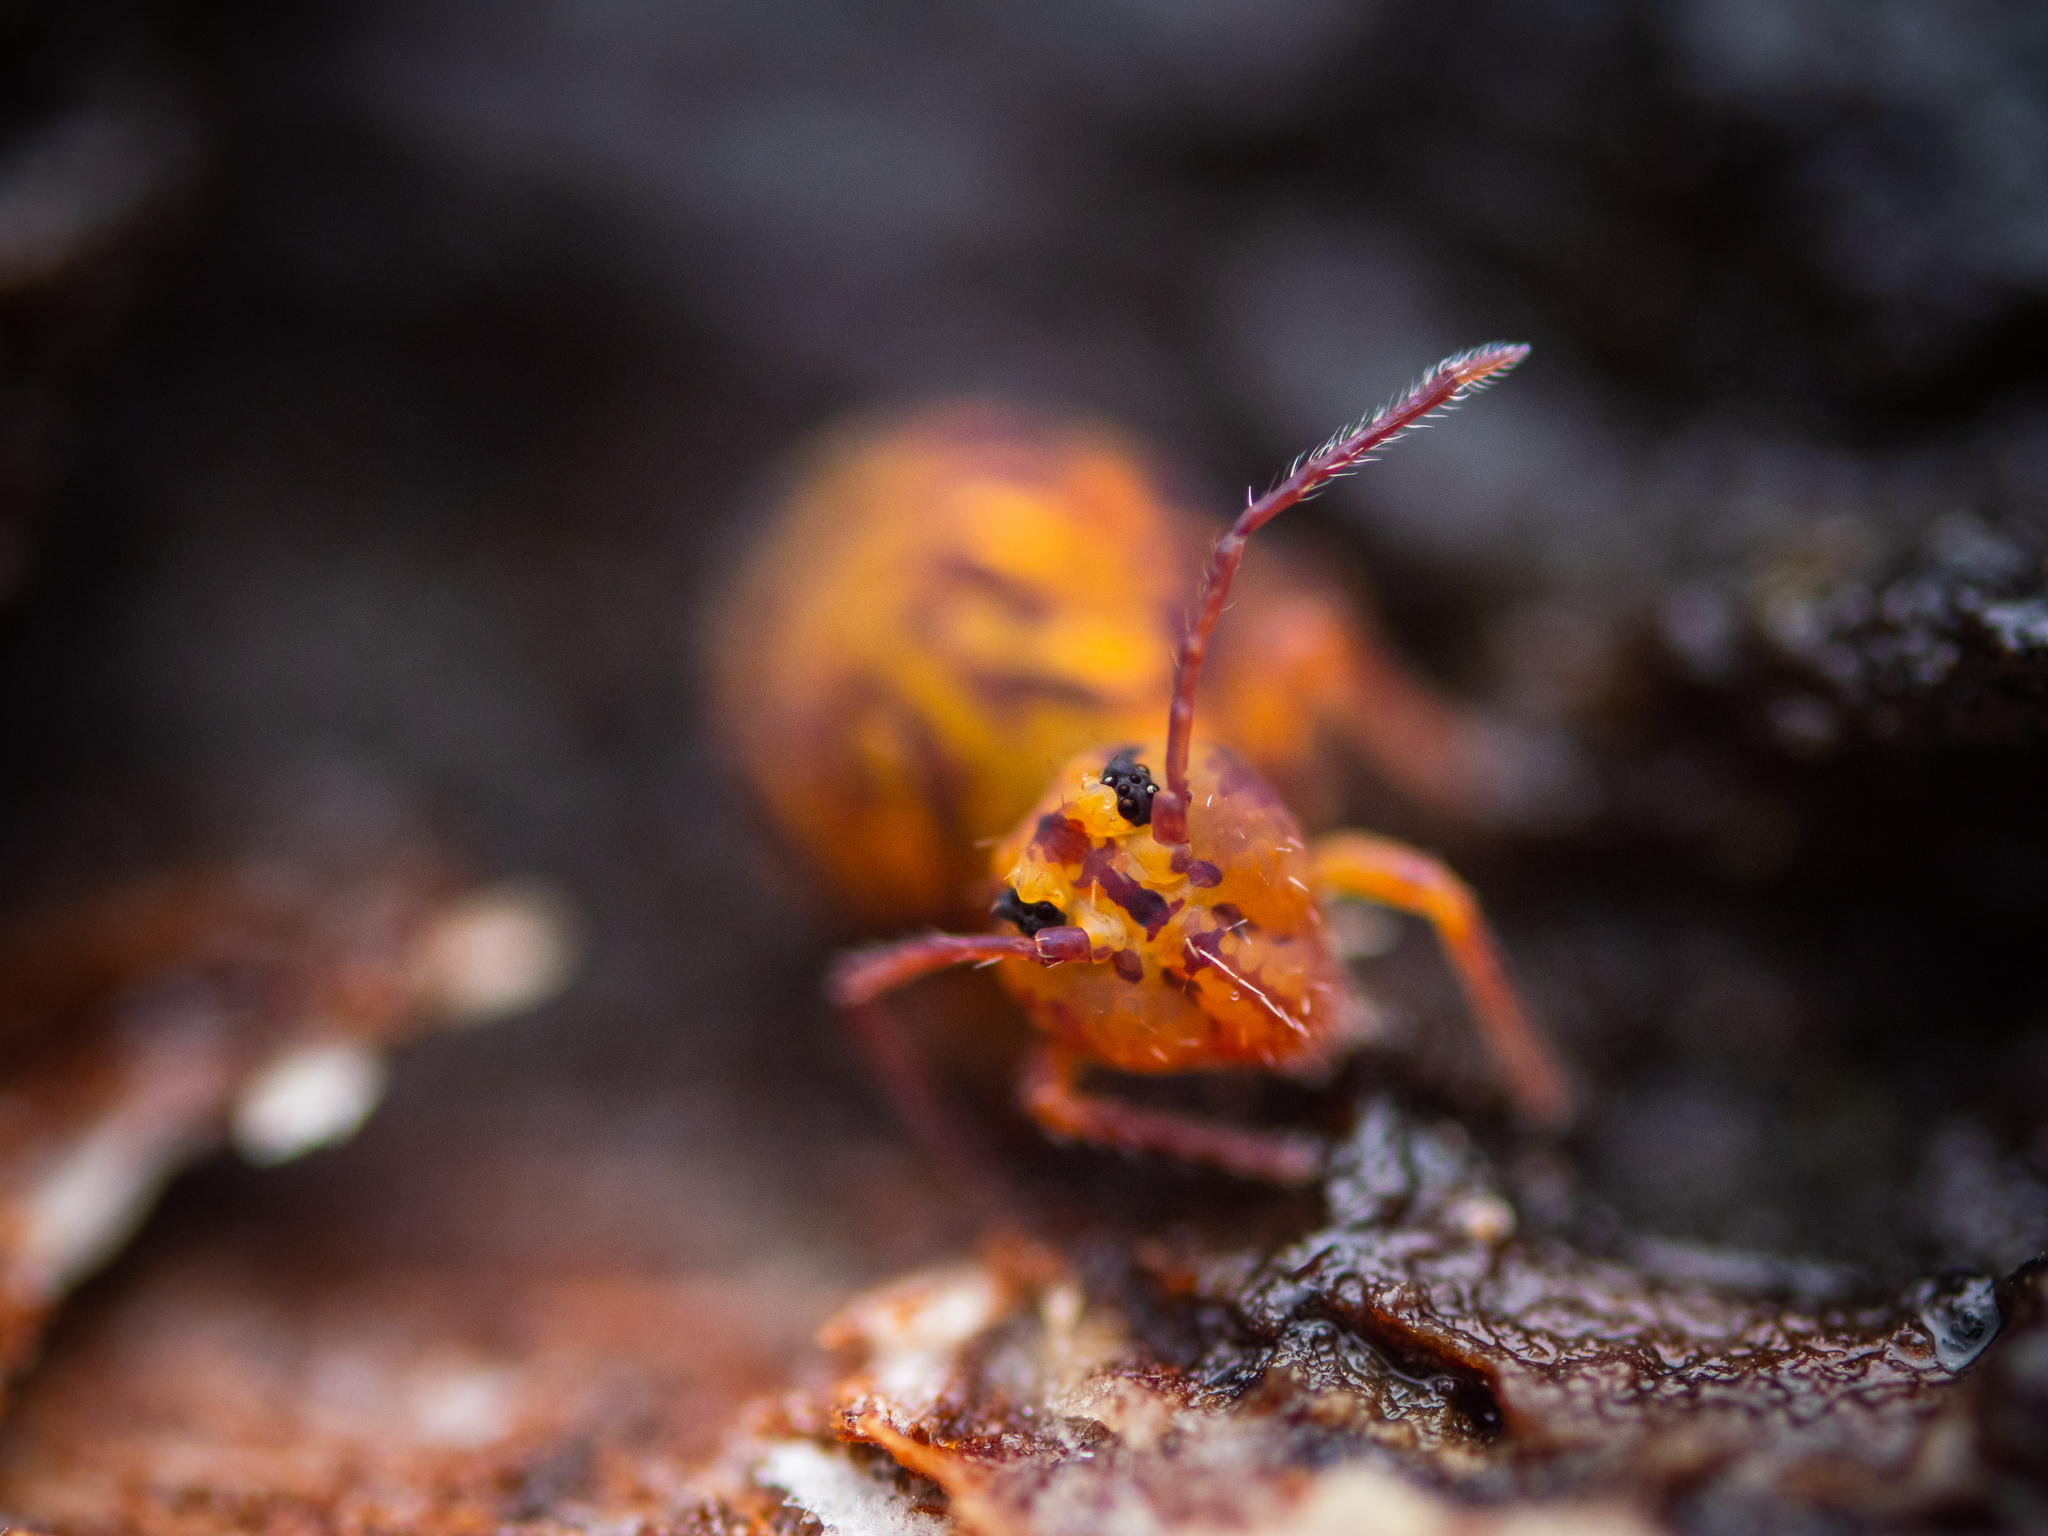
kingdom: Animalia
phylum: Arthropoda
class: Collembola
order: Symphypleona
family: Dicyrtomidae
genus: Dicyrtomina
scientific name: Dicyrtomina ornata
